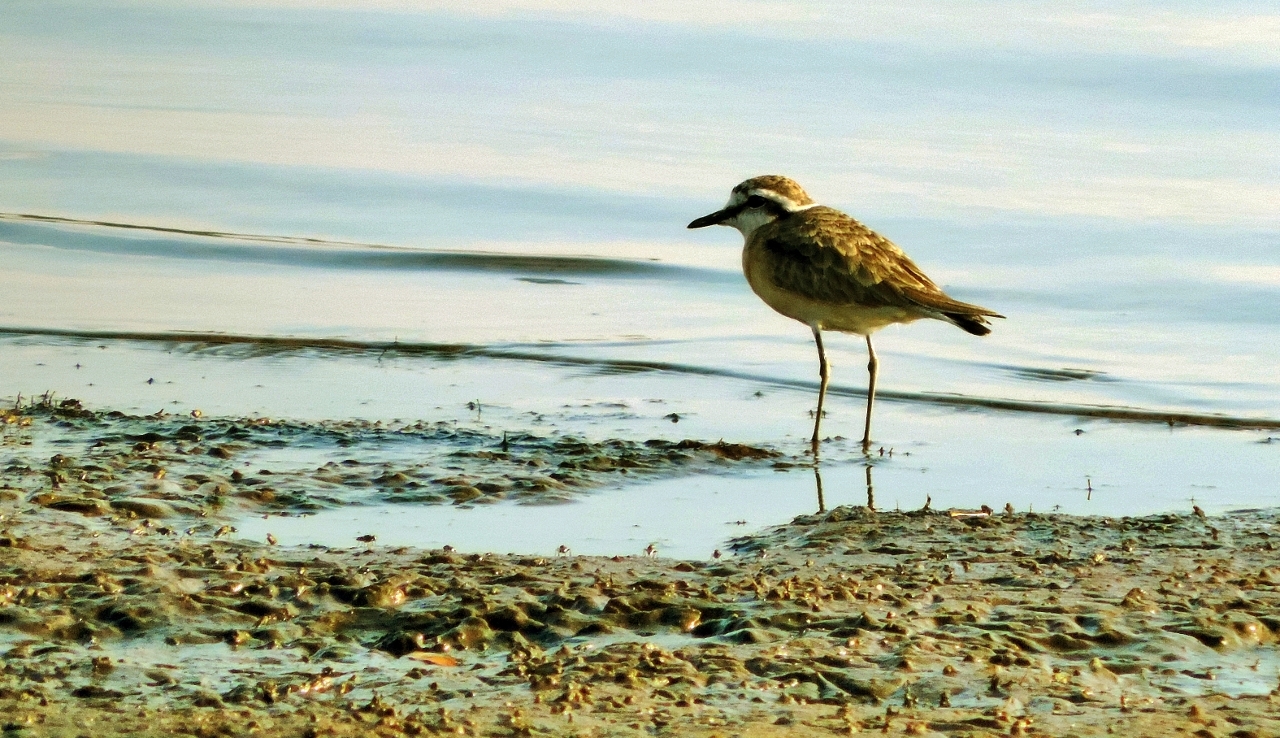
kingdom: Animalia
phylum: Chordata
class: Aves
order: Charadriiformes
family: Charadriidae
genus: Anarhynchus
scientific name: Anarhynchus
